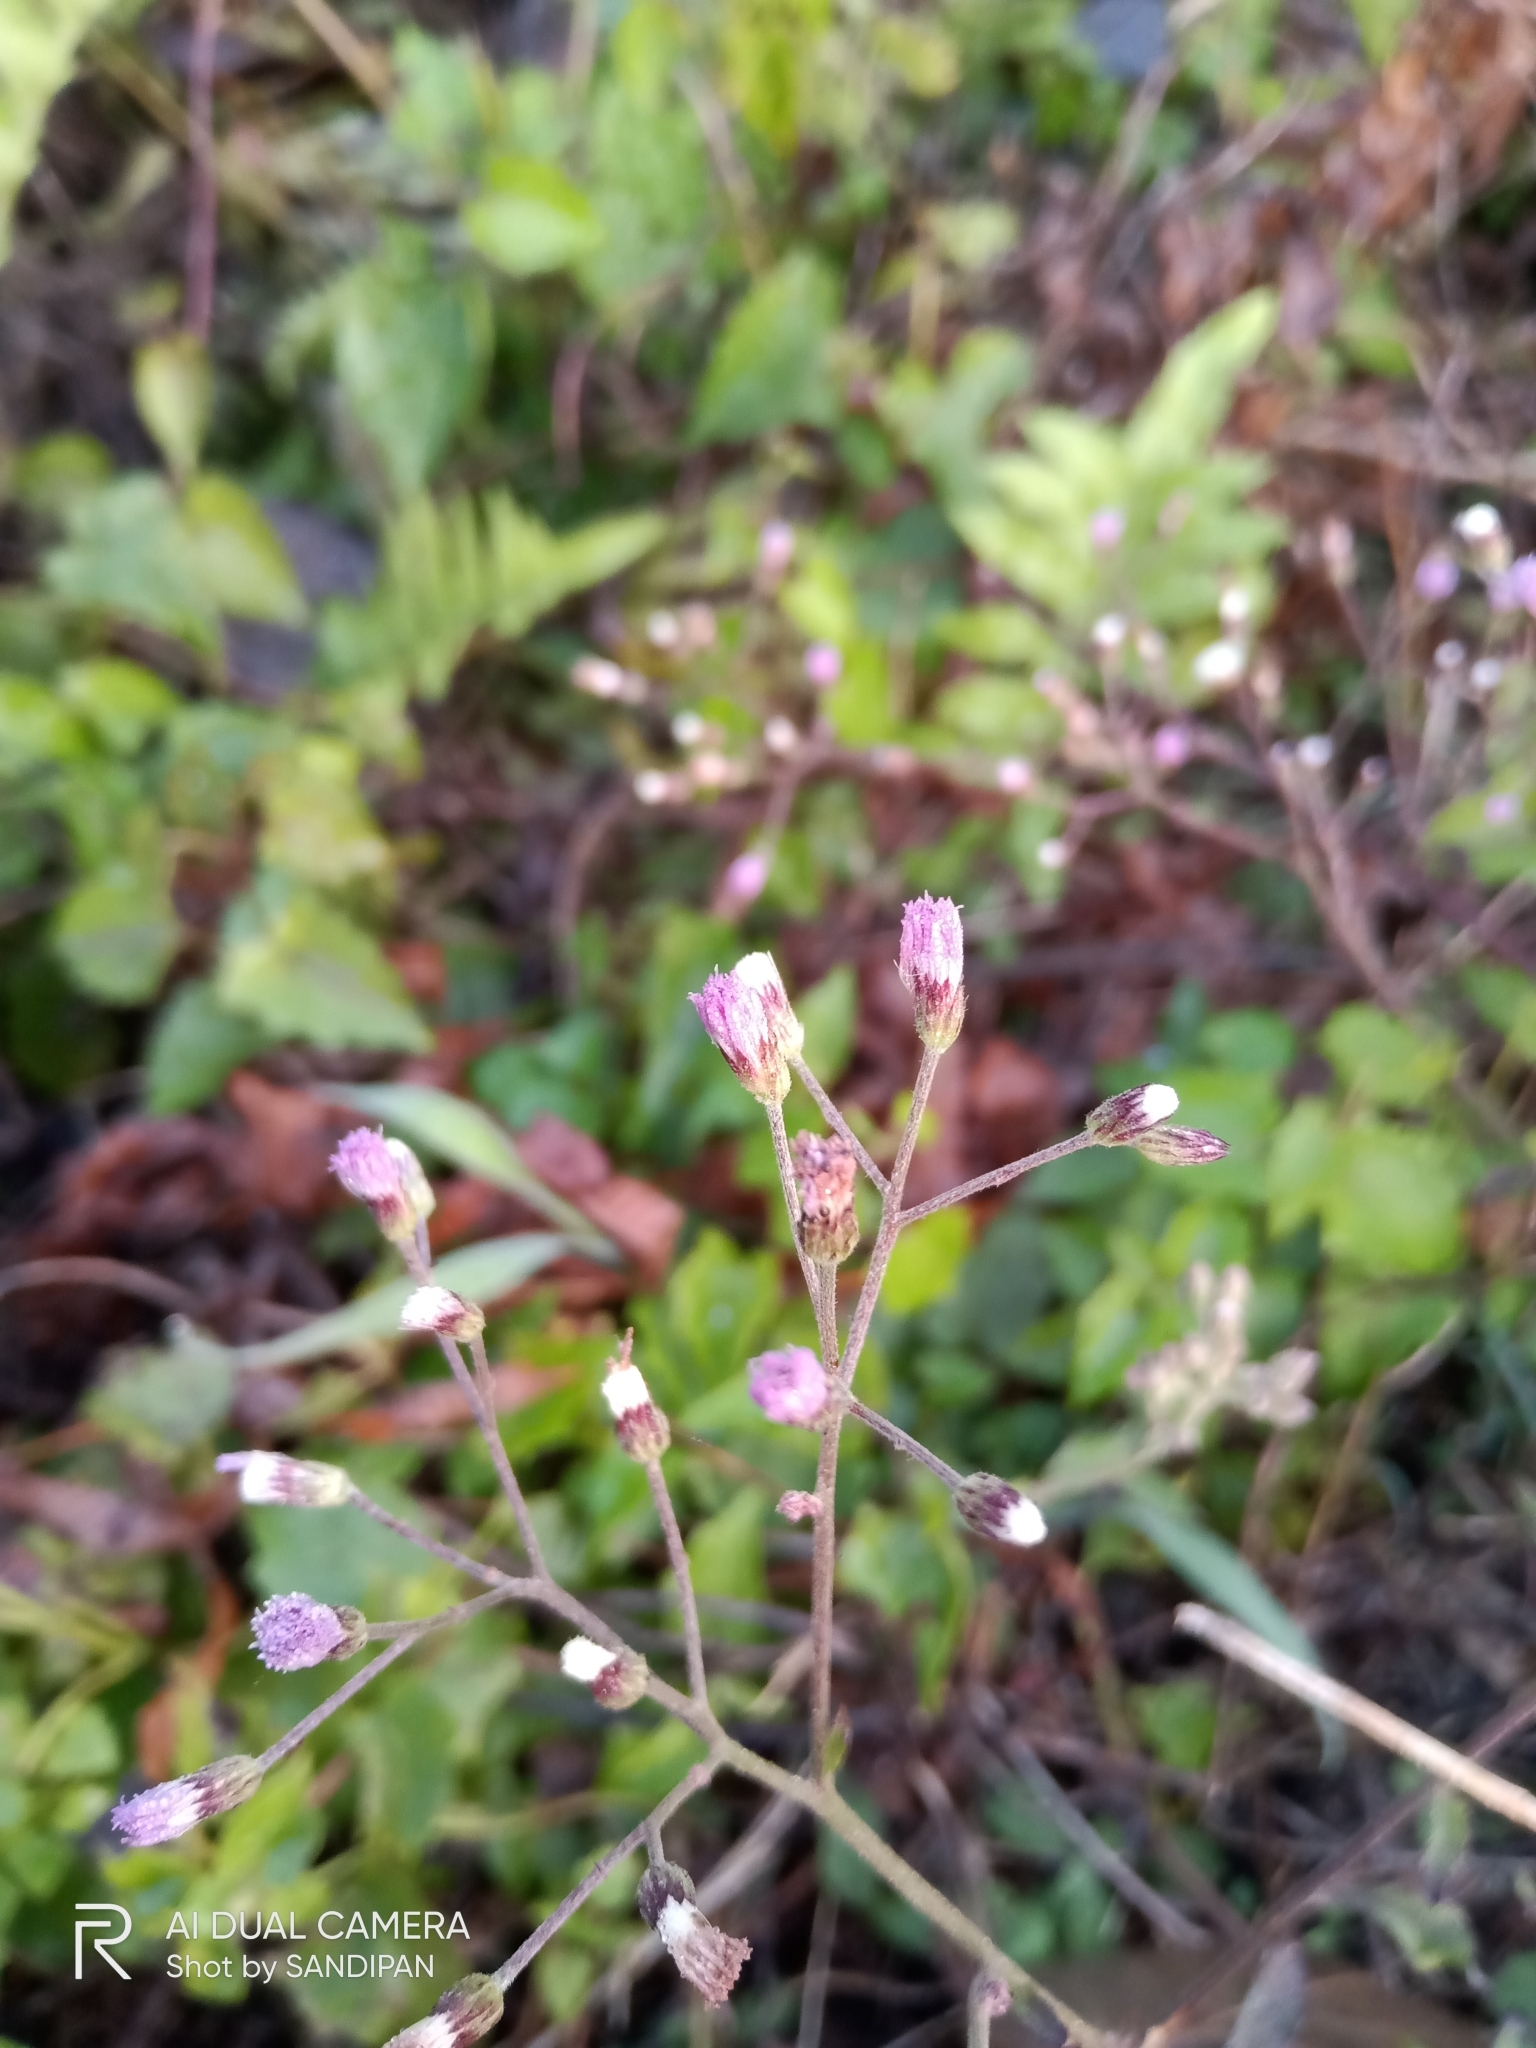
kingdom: Plantae
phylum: Tracheophyta
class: Magnoliopsida
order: Asterales
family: Asteraceae
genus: Cyanthillium
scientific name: Cyanthillium cinereum
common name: Little ironweed
